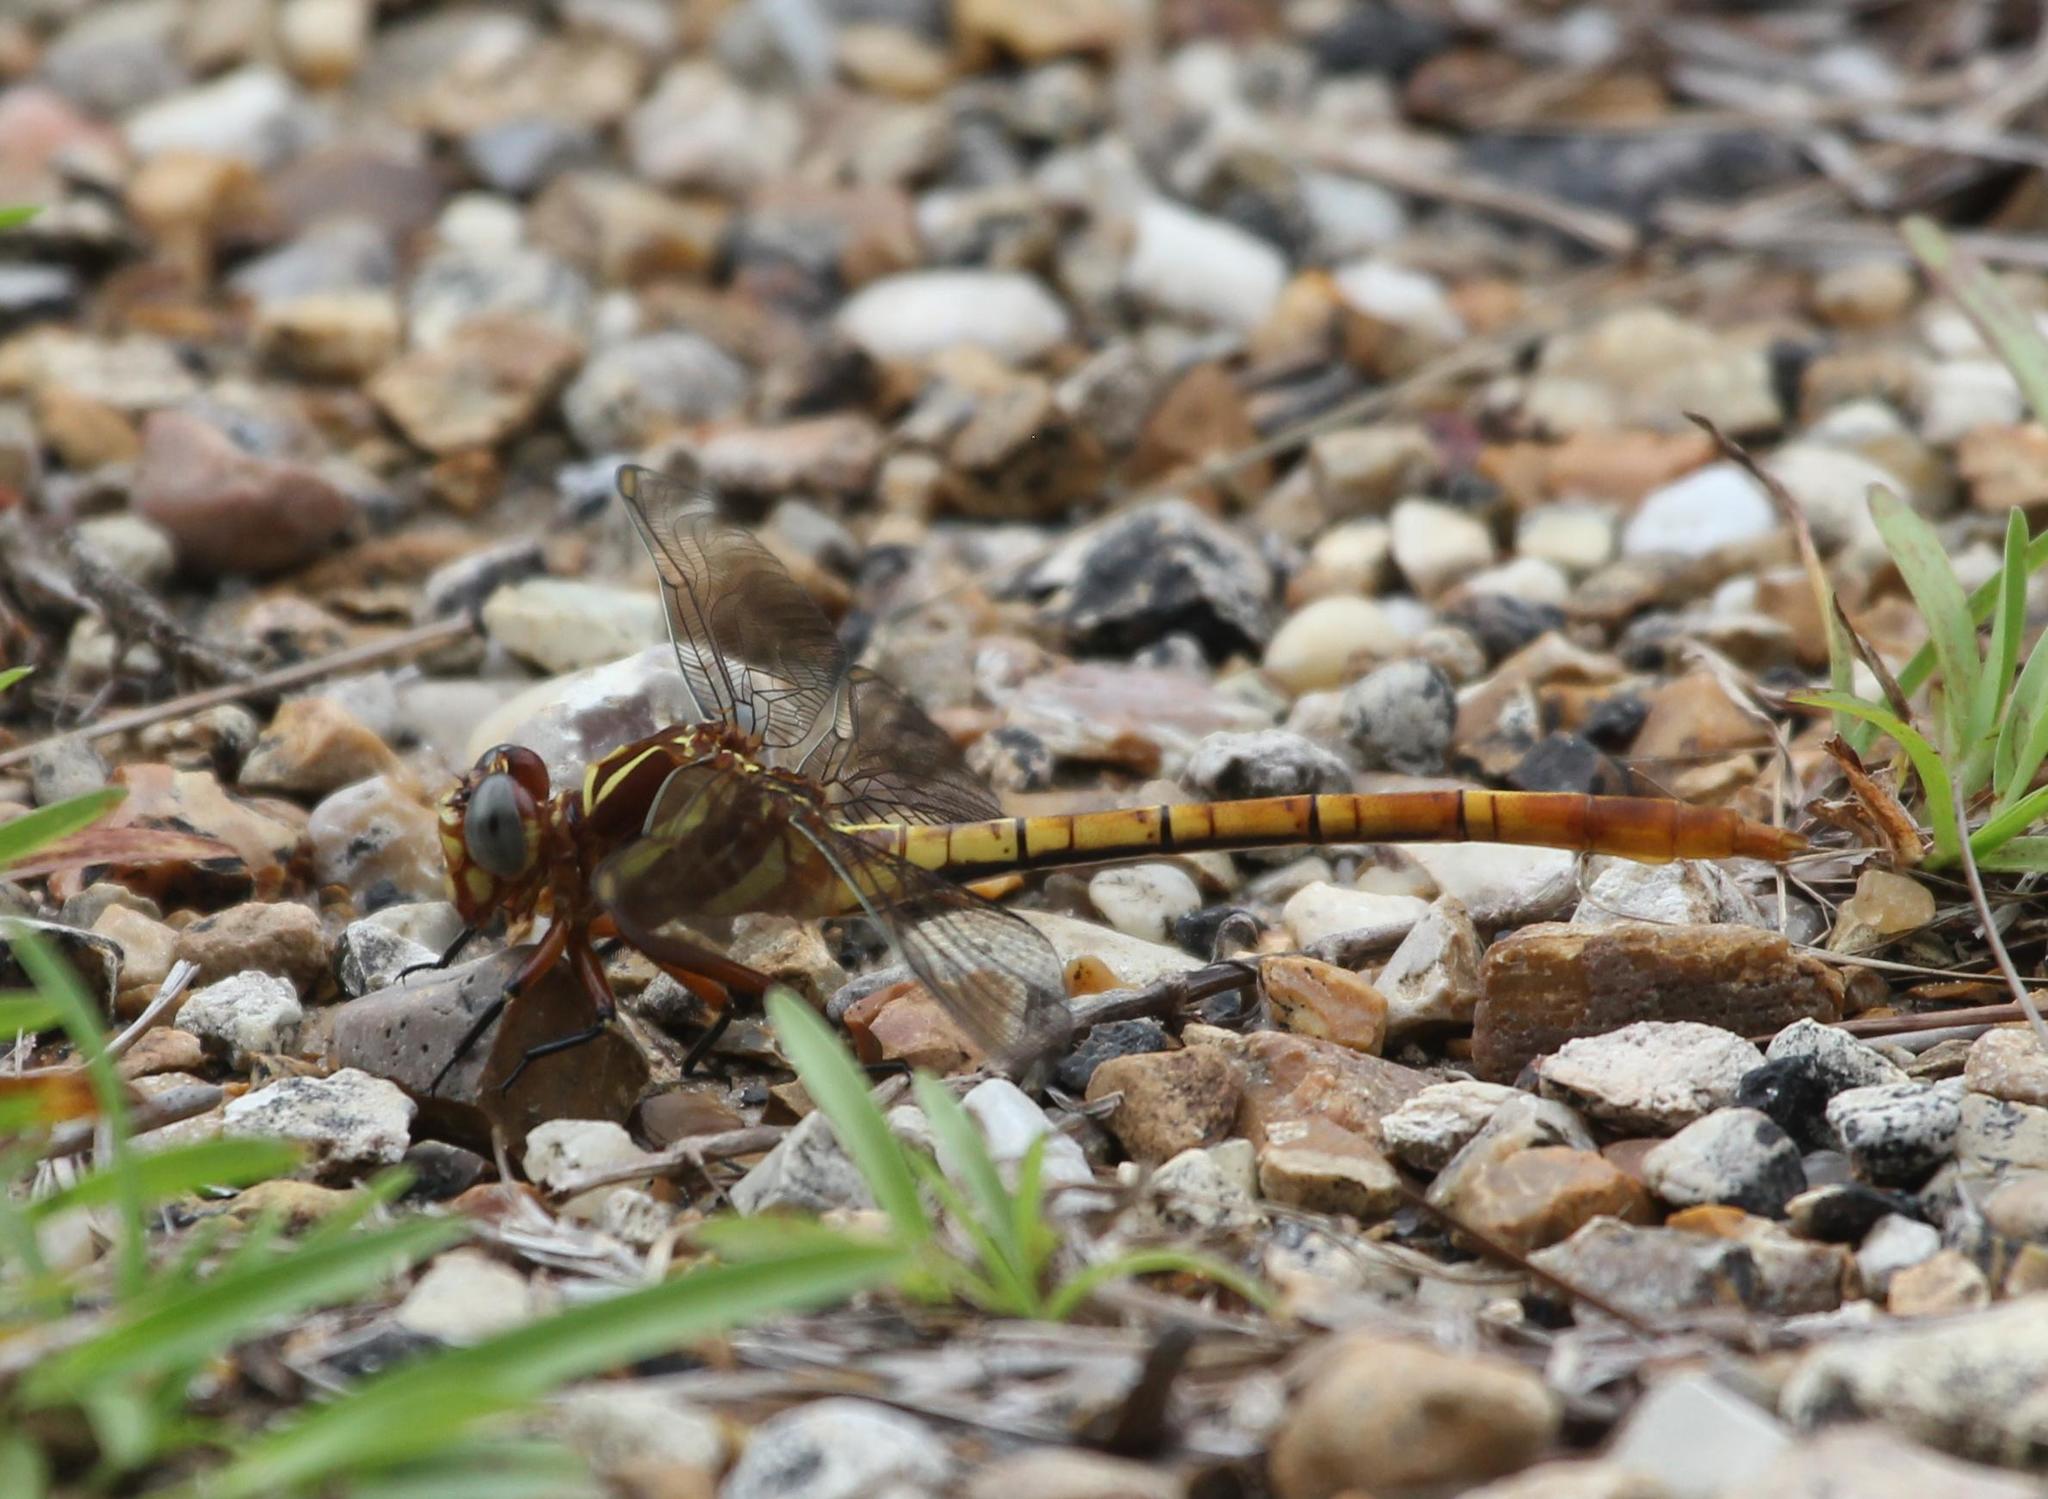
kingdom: Animalia
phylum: Arthropoda
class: Insecta
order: Odonata
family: Gomphidae
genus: Aphylla
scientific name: Aphylla williamsoni
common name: Two-striped forceptail
